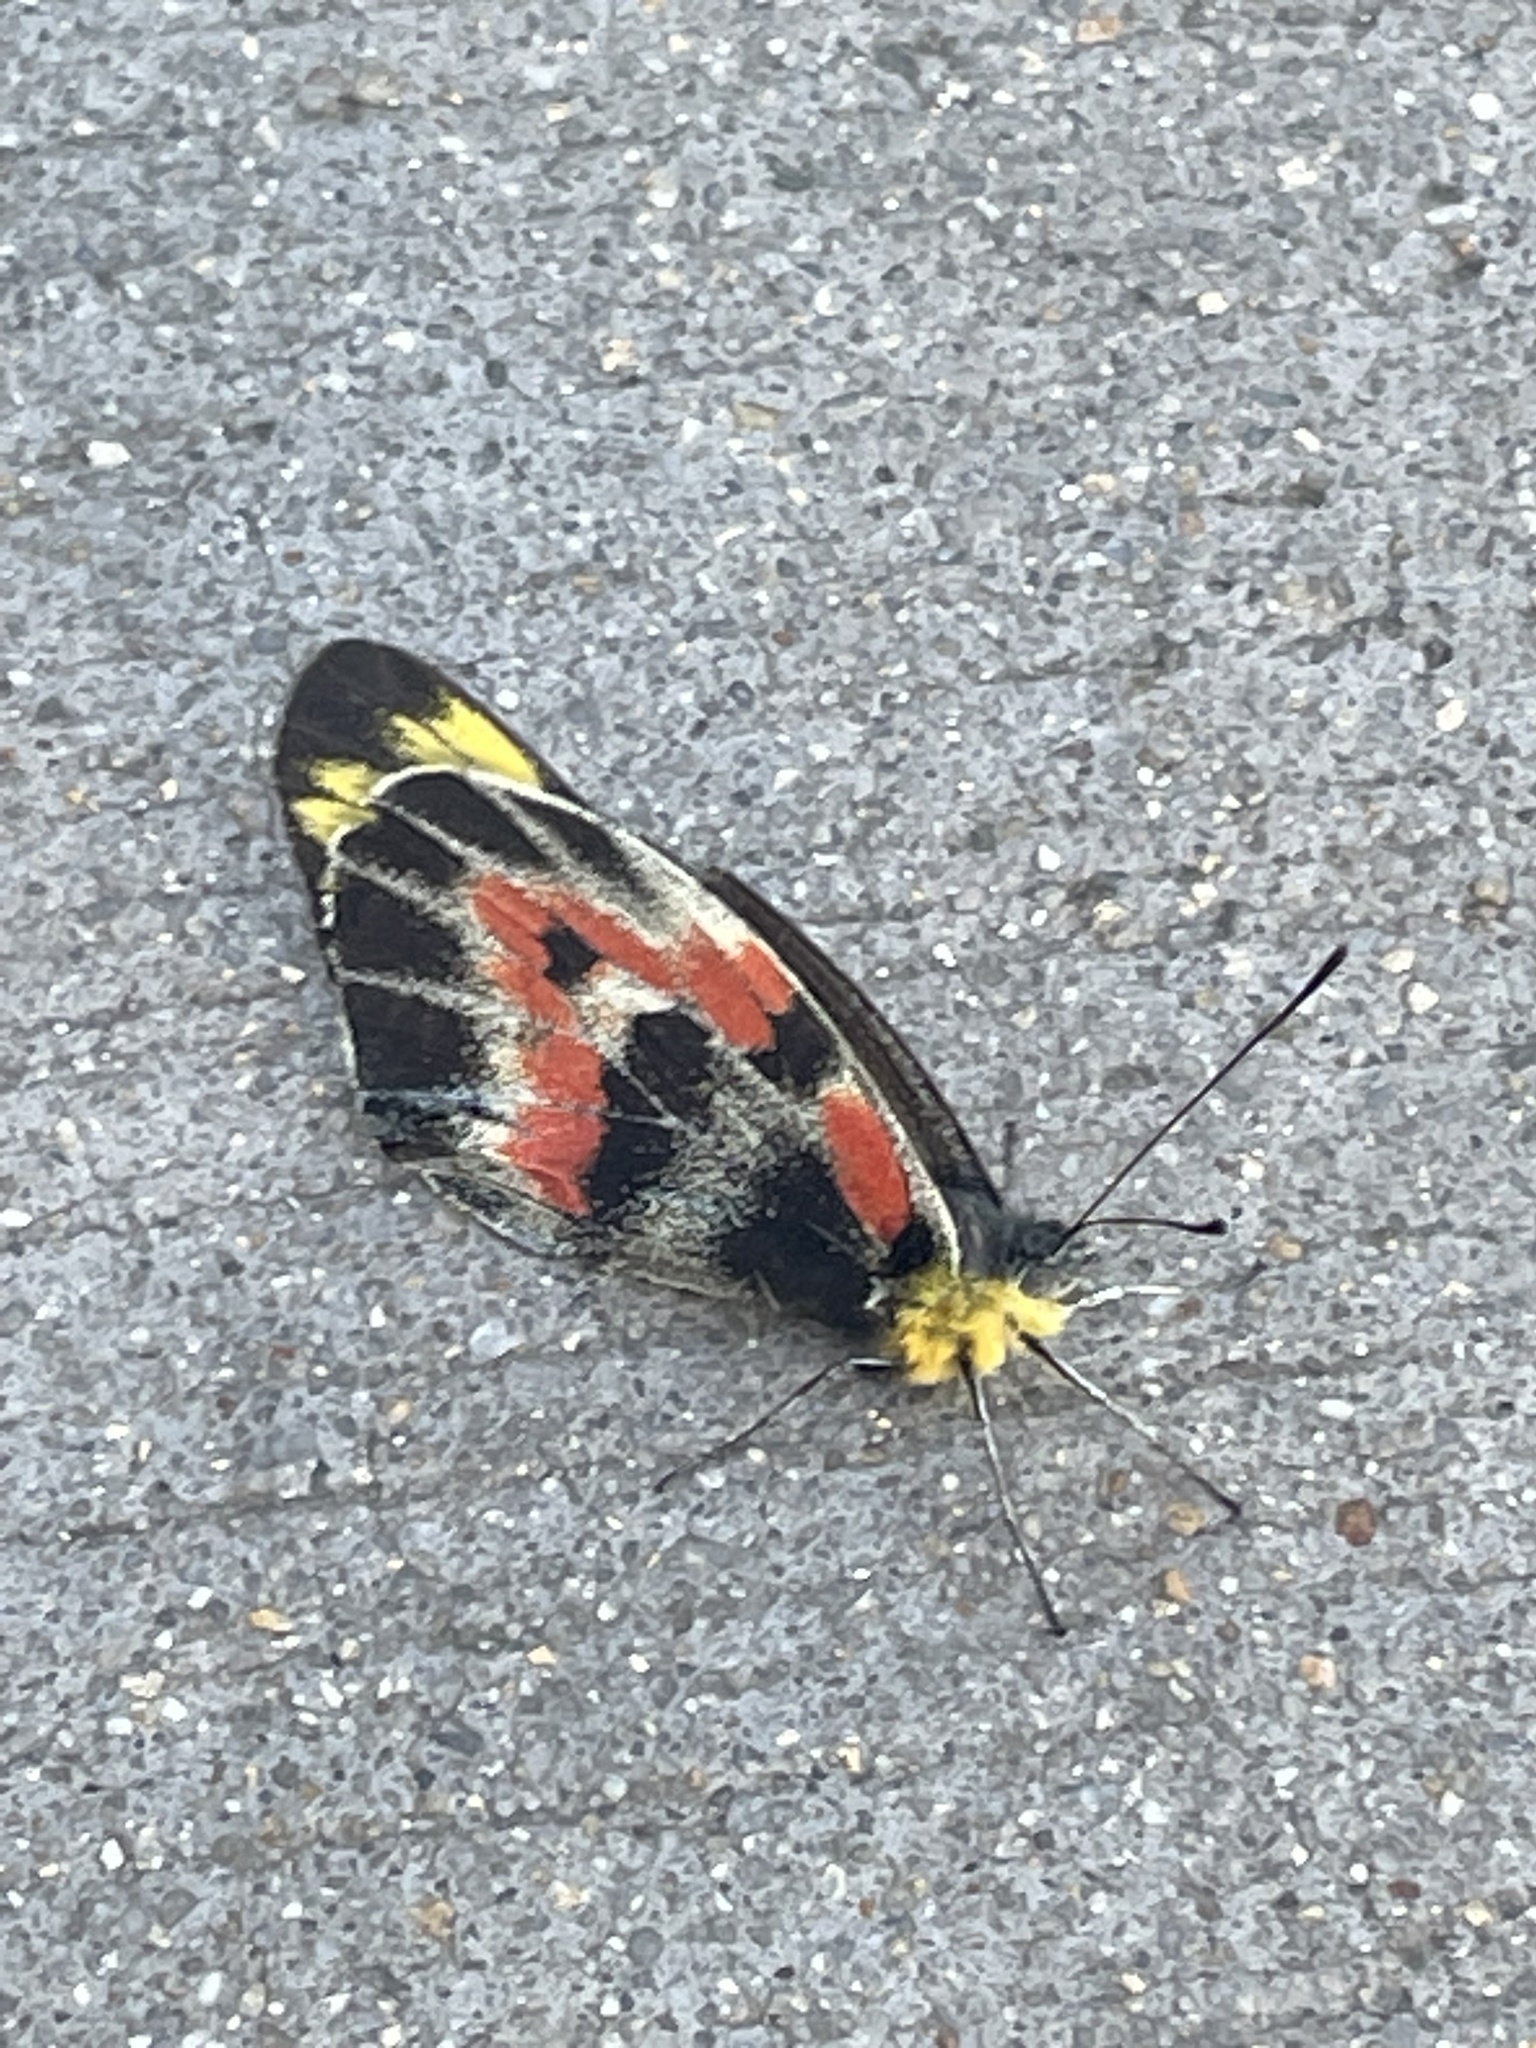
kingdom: Animalia
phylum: Arthropoda
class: Insecta
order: Lepidoptera
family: Pieridae
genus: Delias
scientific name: Delias harpalyce
